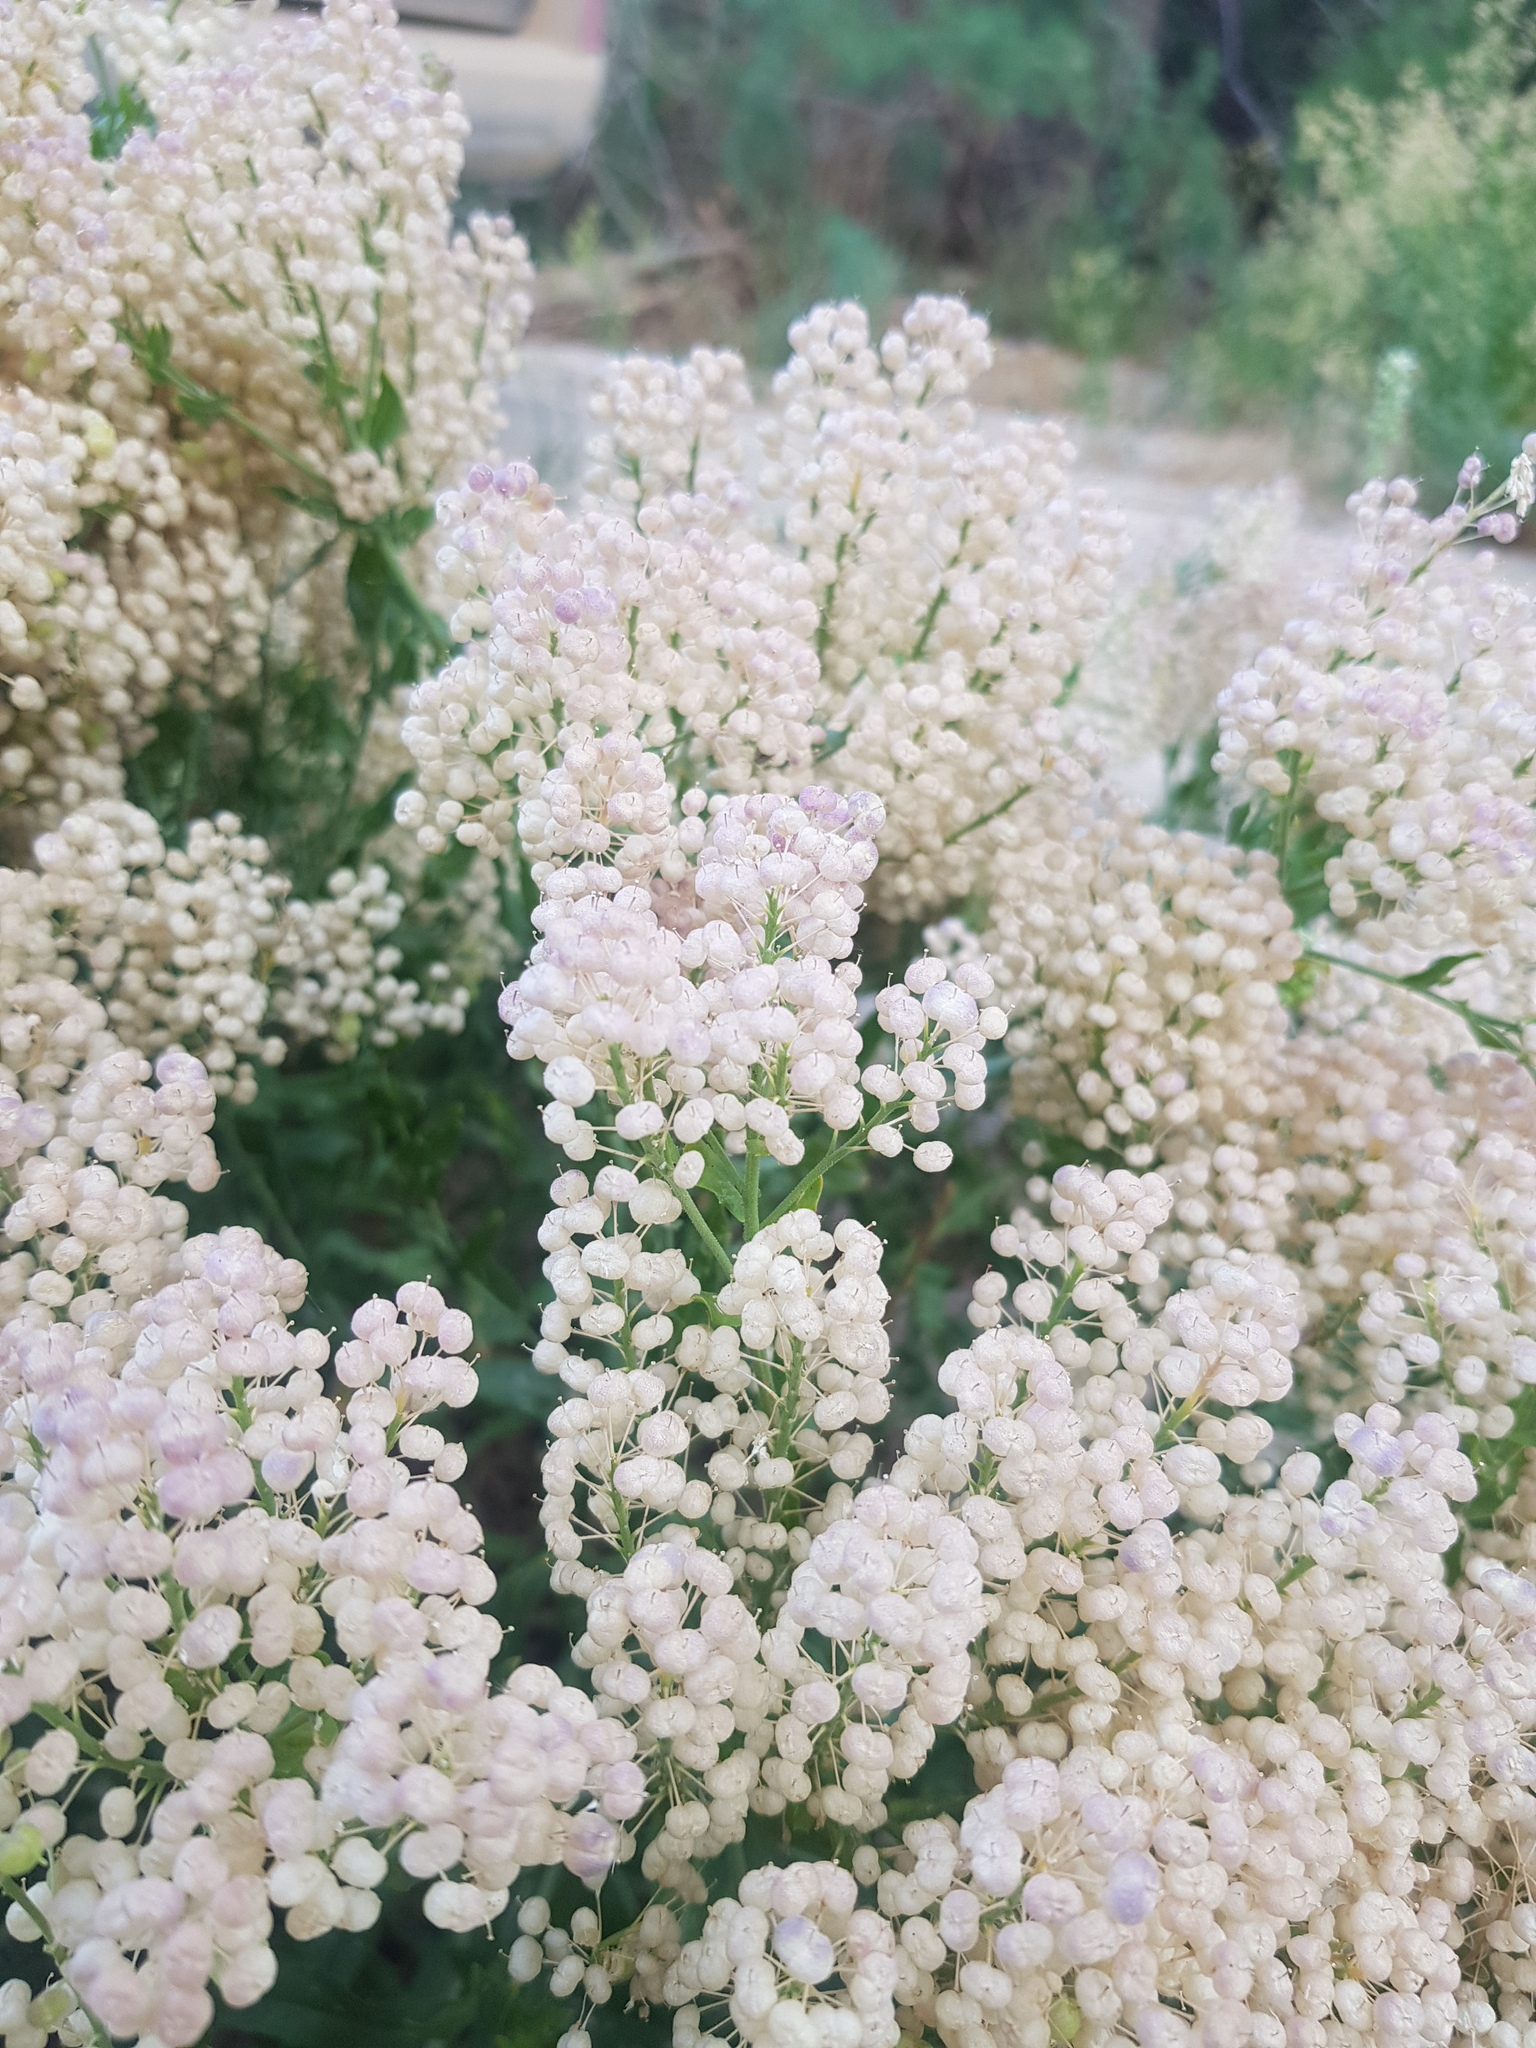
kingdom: Plantae
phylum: Tracheophyta
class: Magnoliopsida
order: Brassicales
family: Brassicaceae
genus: Lepidium
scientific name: Lepidium appelianum
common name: Hairy whitetop
